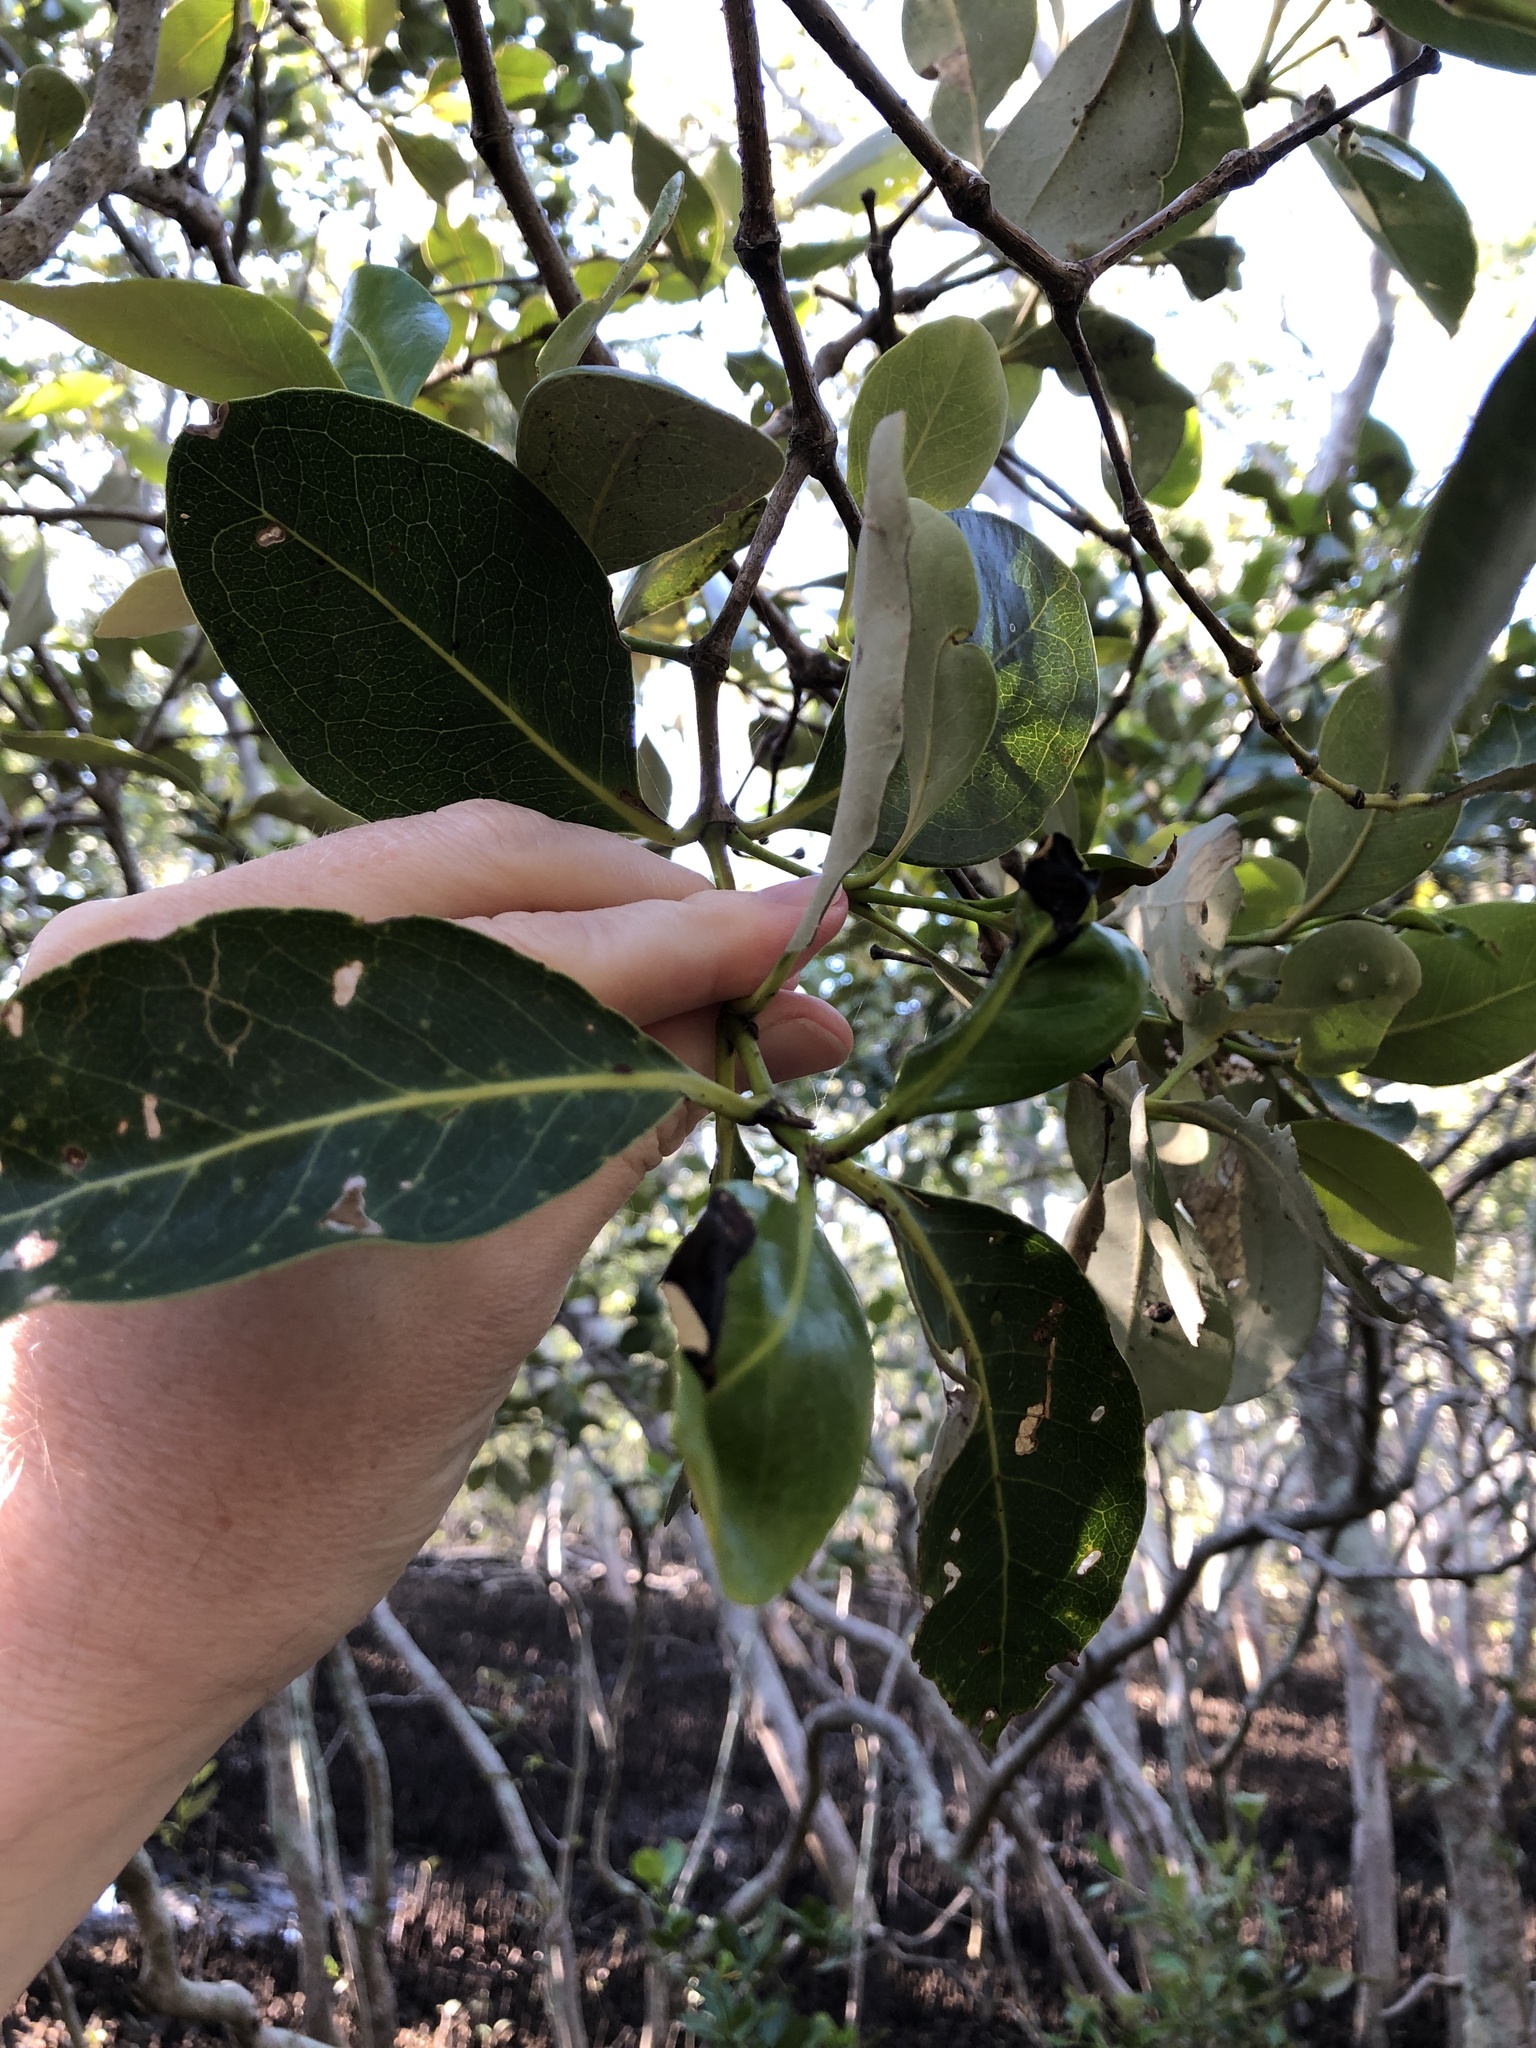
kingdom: Plantae
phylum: Tracheophyta
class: Magnoliopsida
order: Lamiales
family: Acanthaceae
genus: Avicennia
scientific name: Avicennia marina
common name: Gray mangrove
